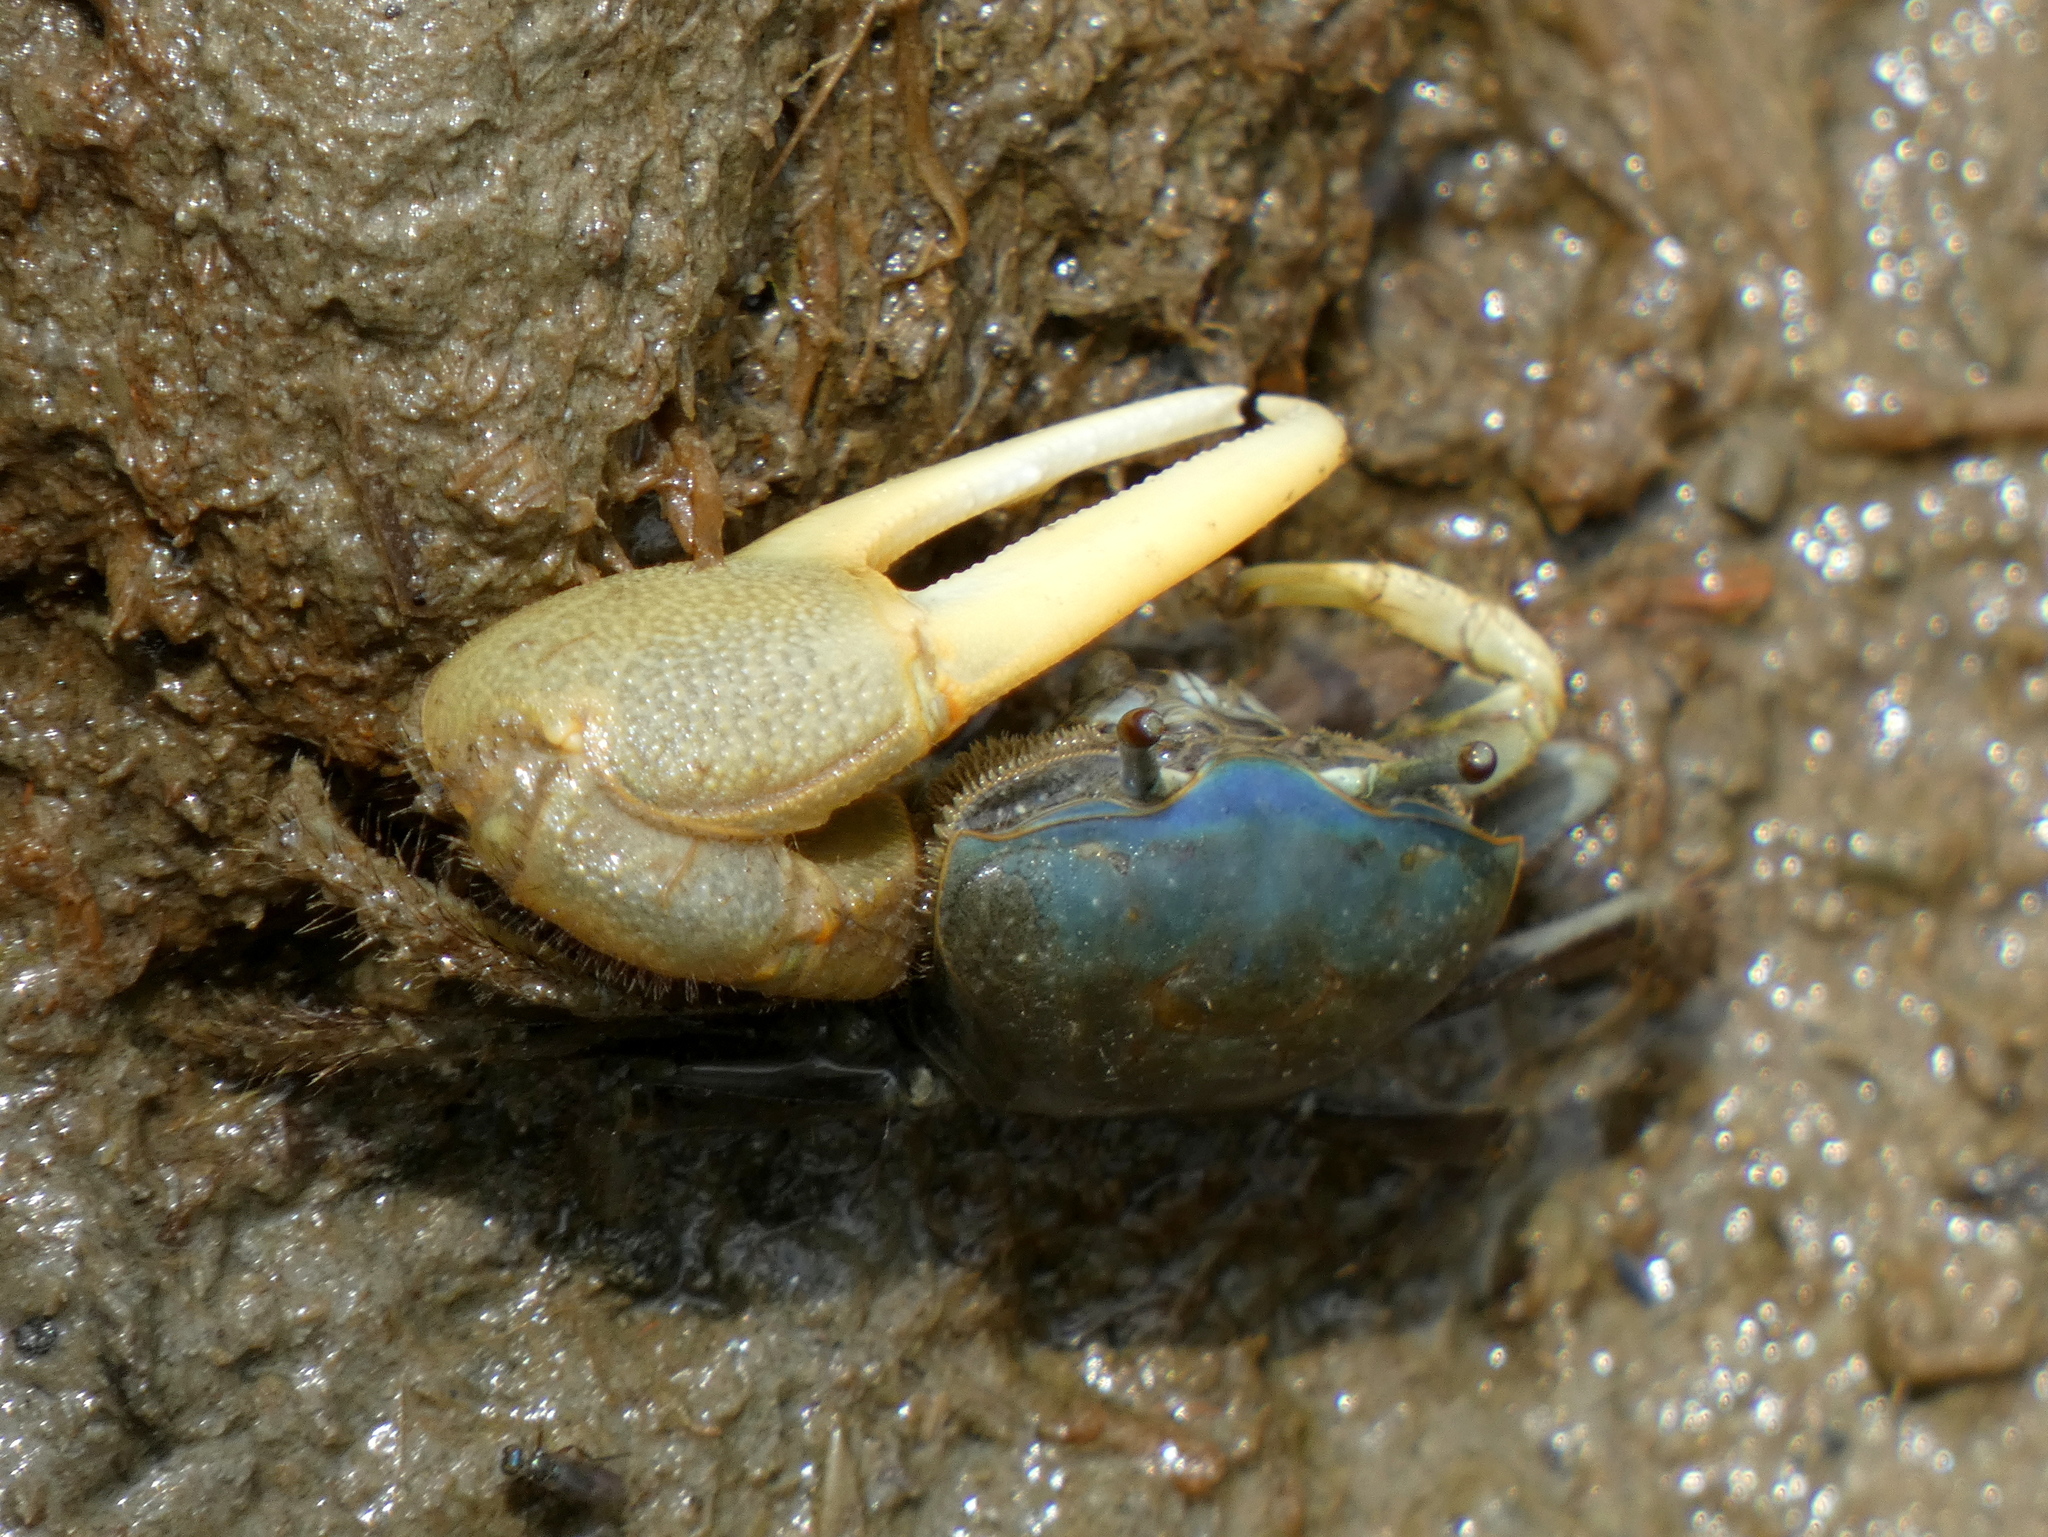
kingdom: Animalia
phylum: Arthropoda
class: Malacostraca
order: Decapoda
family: Ocypodidae
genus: Minuca
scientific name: Minuca pugnax
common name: Mud fiddler crab
